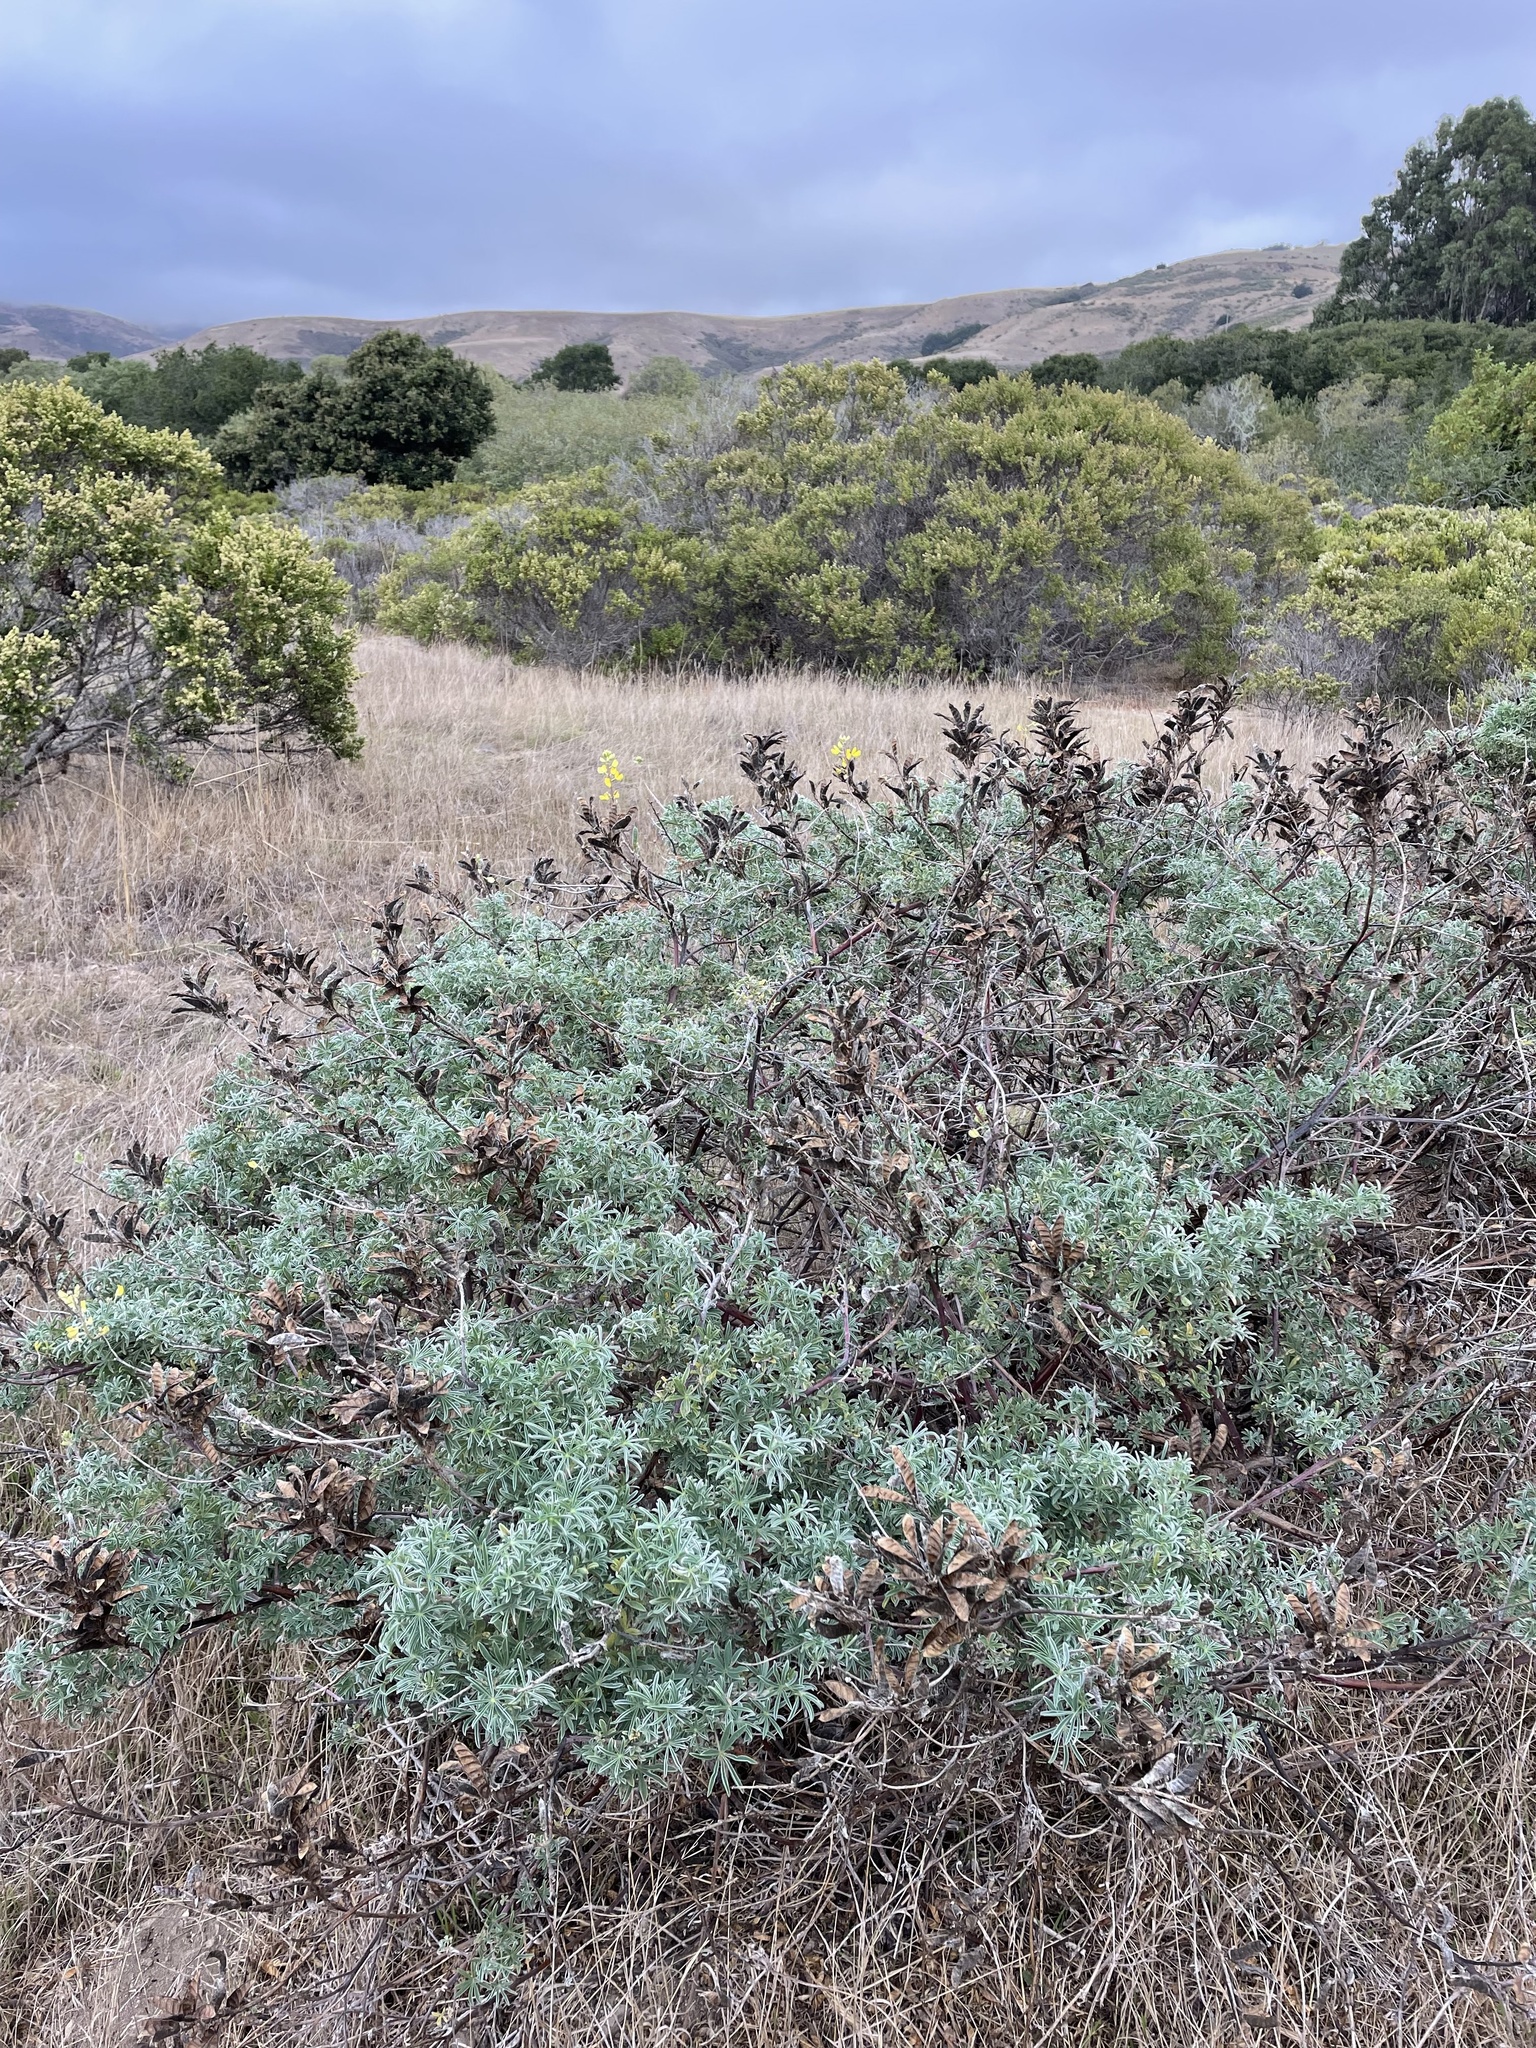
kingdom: Plantae
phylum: Tracheophyta
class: Magnoliopsida
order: Fabales
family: Fabaceae
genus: Lupinus
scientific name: Lupinus arboreus
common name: Yellow bush lupine
